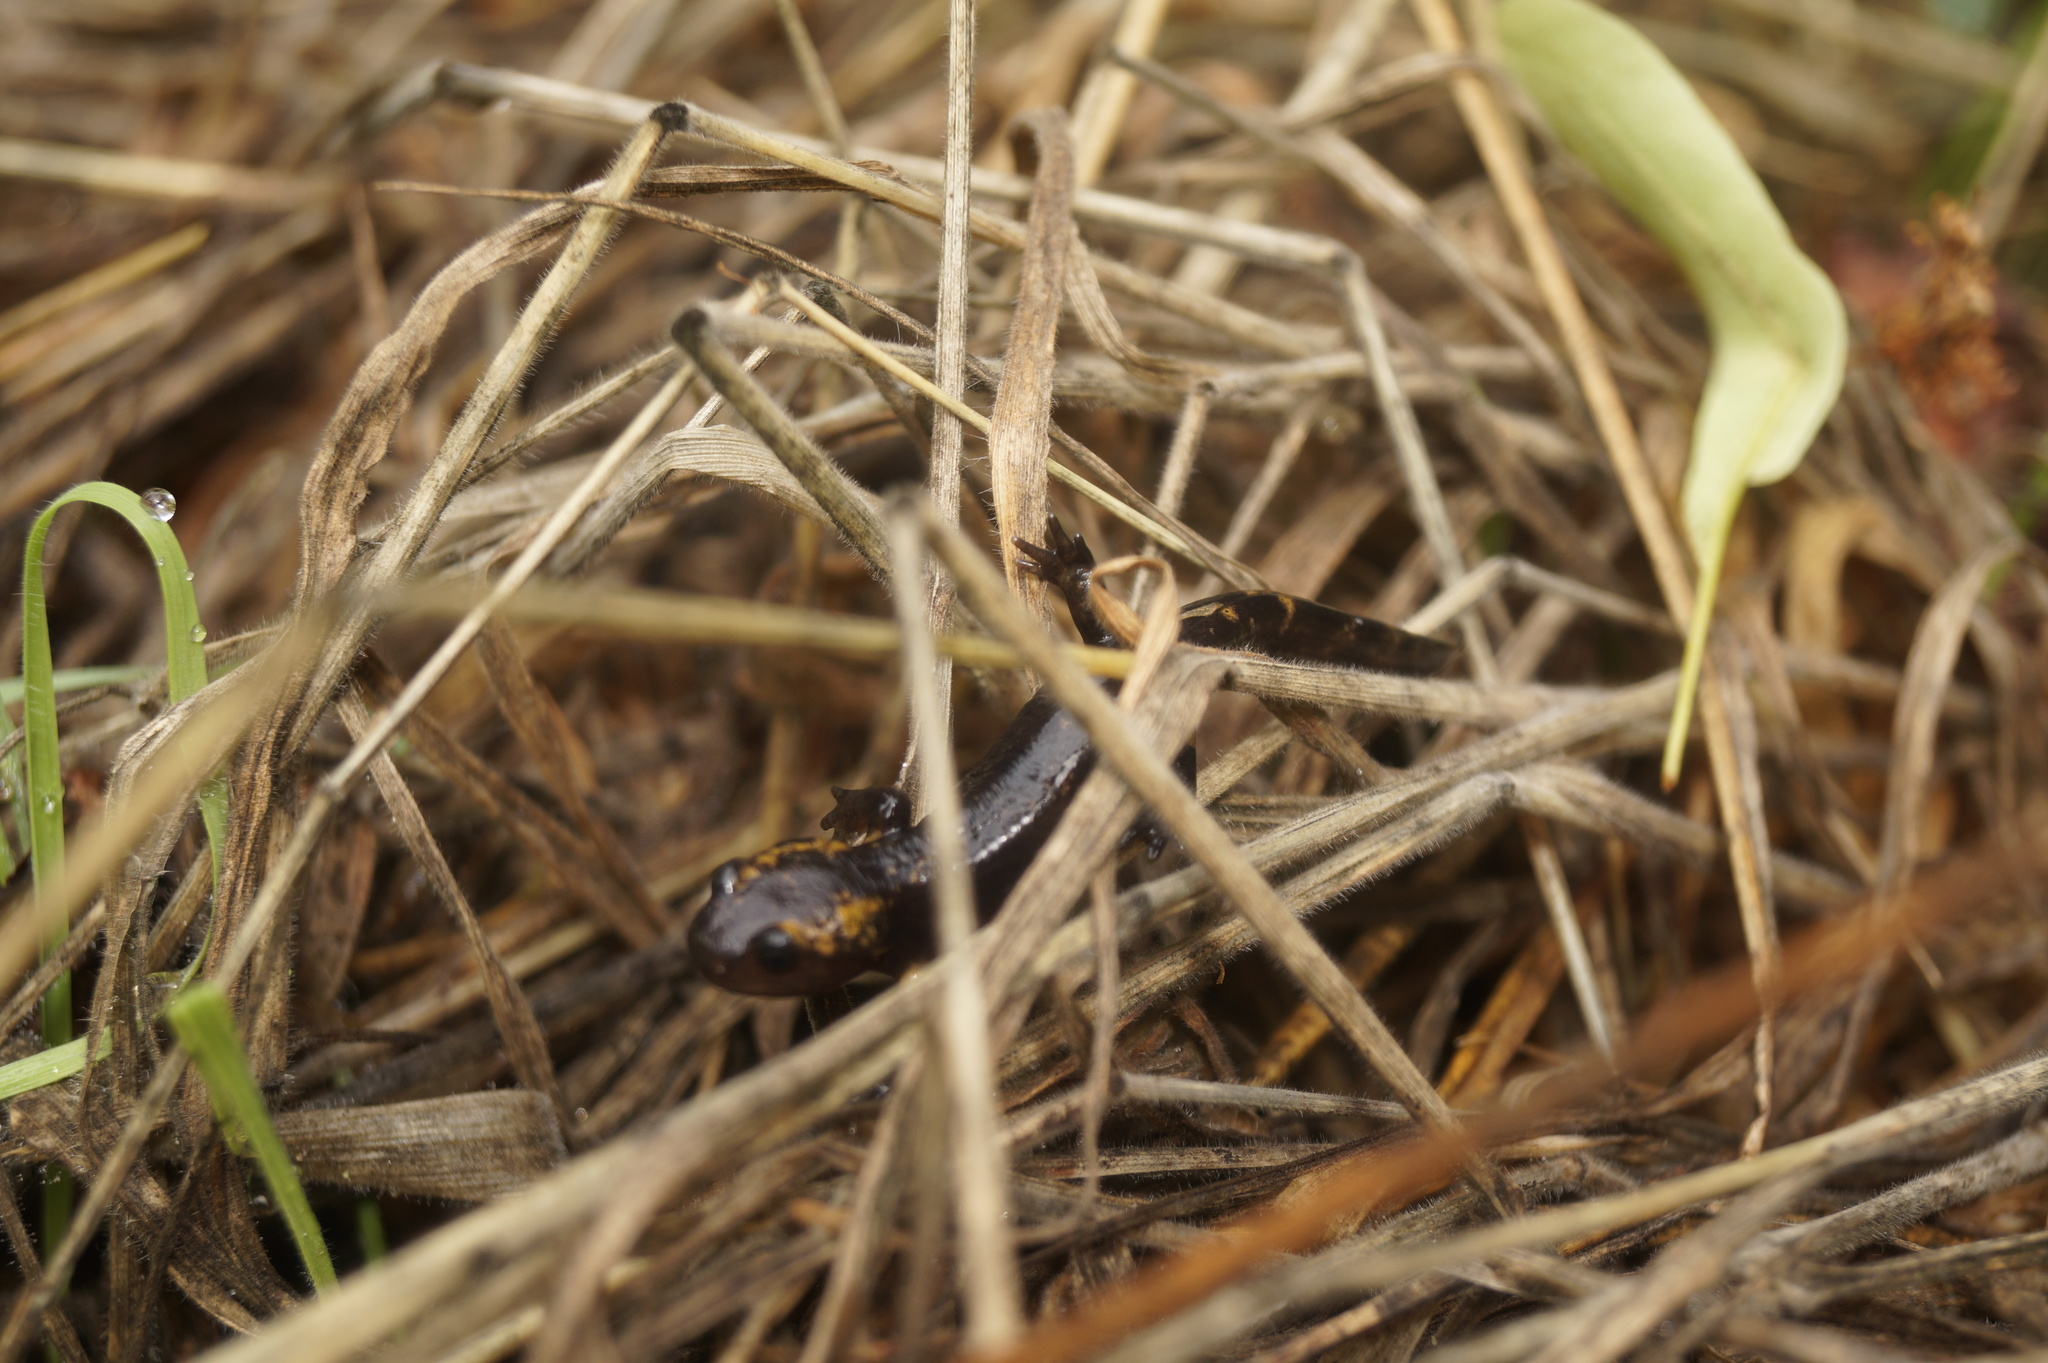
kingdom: Animalia
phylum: Chordata
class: Amphibia
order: Caudata
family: Salamandridae
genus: Salamandra
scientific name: Salamandra salamandra
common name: Fire salamander
